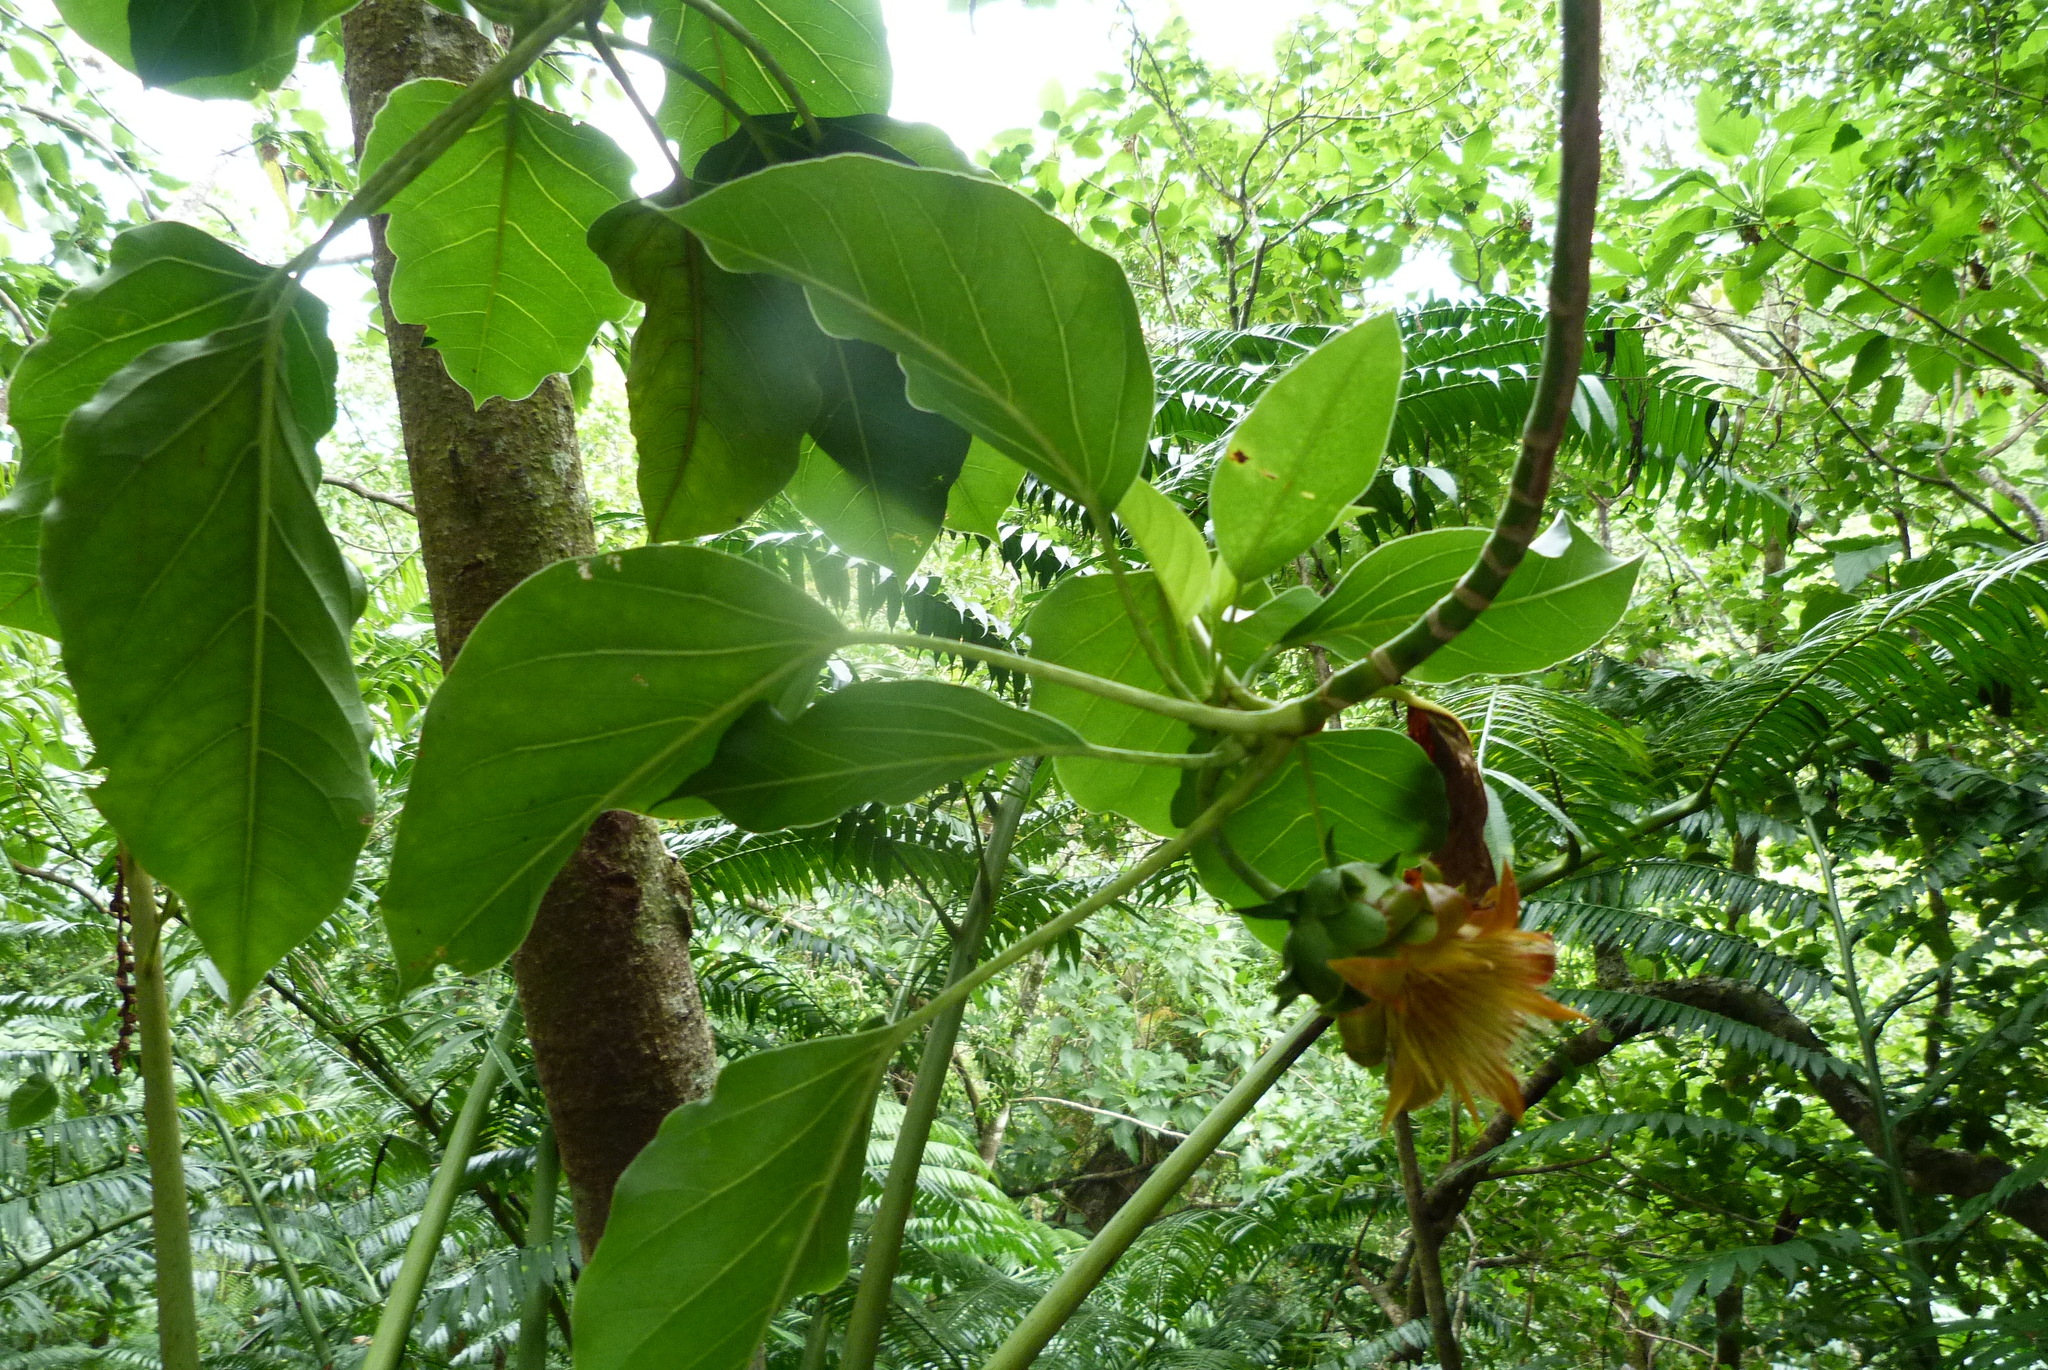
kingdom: Plantae
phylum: Tracheophyta
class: Magnoliopsida
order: Asterales
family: Asteraceae
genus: Fitchia
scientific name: Fitchia speciosa
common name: Burr daisytree
